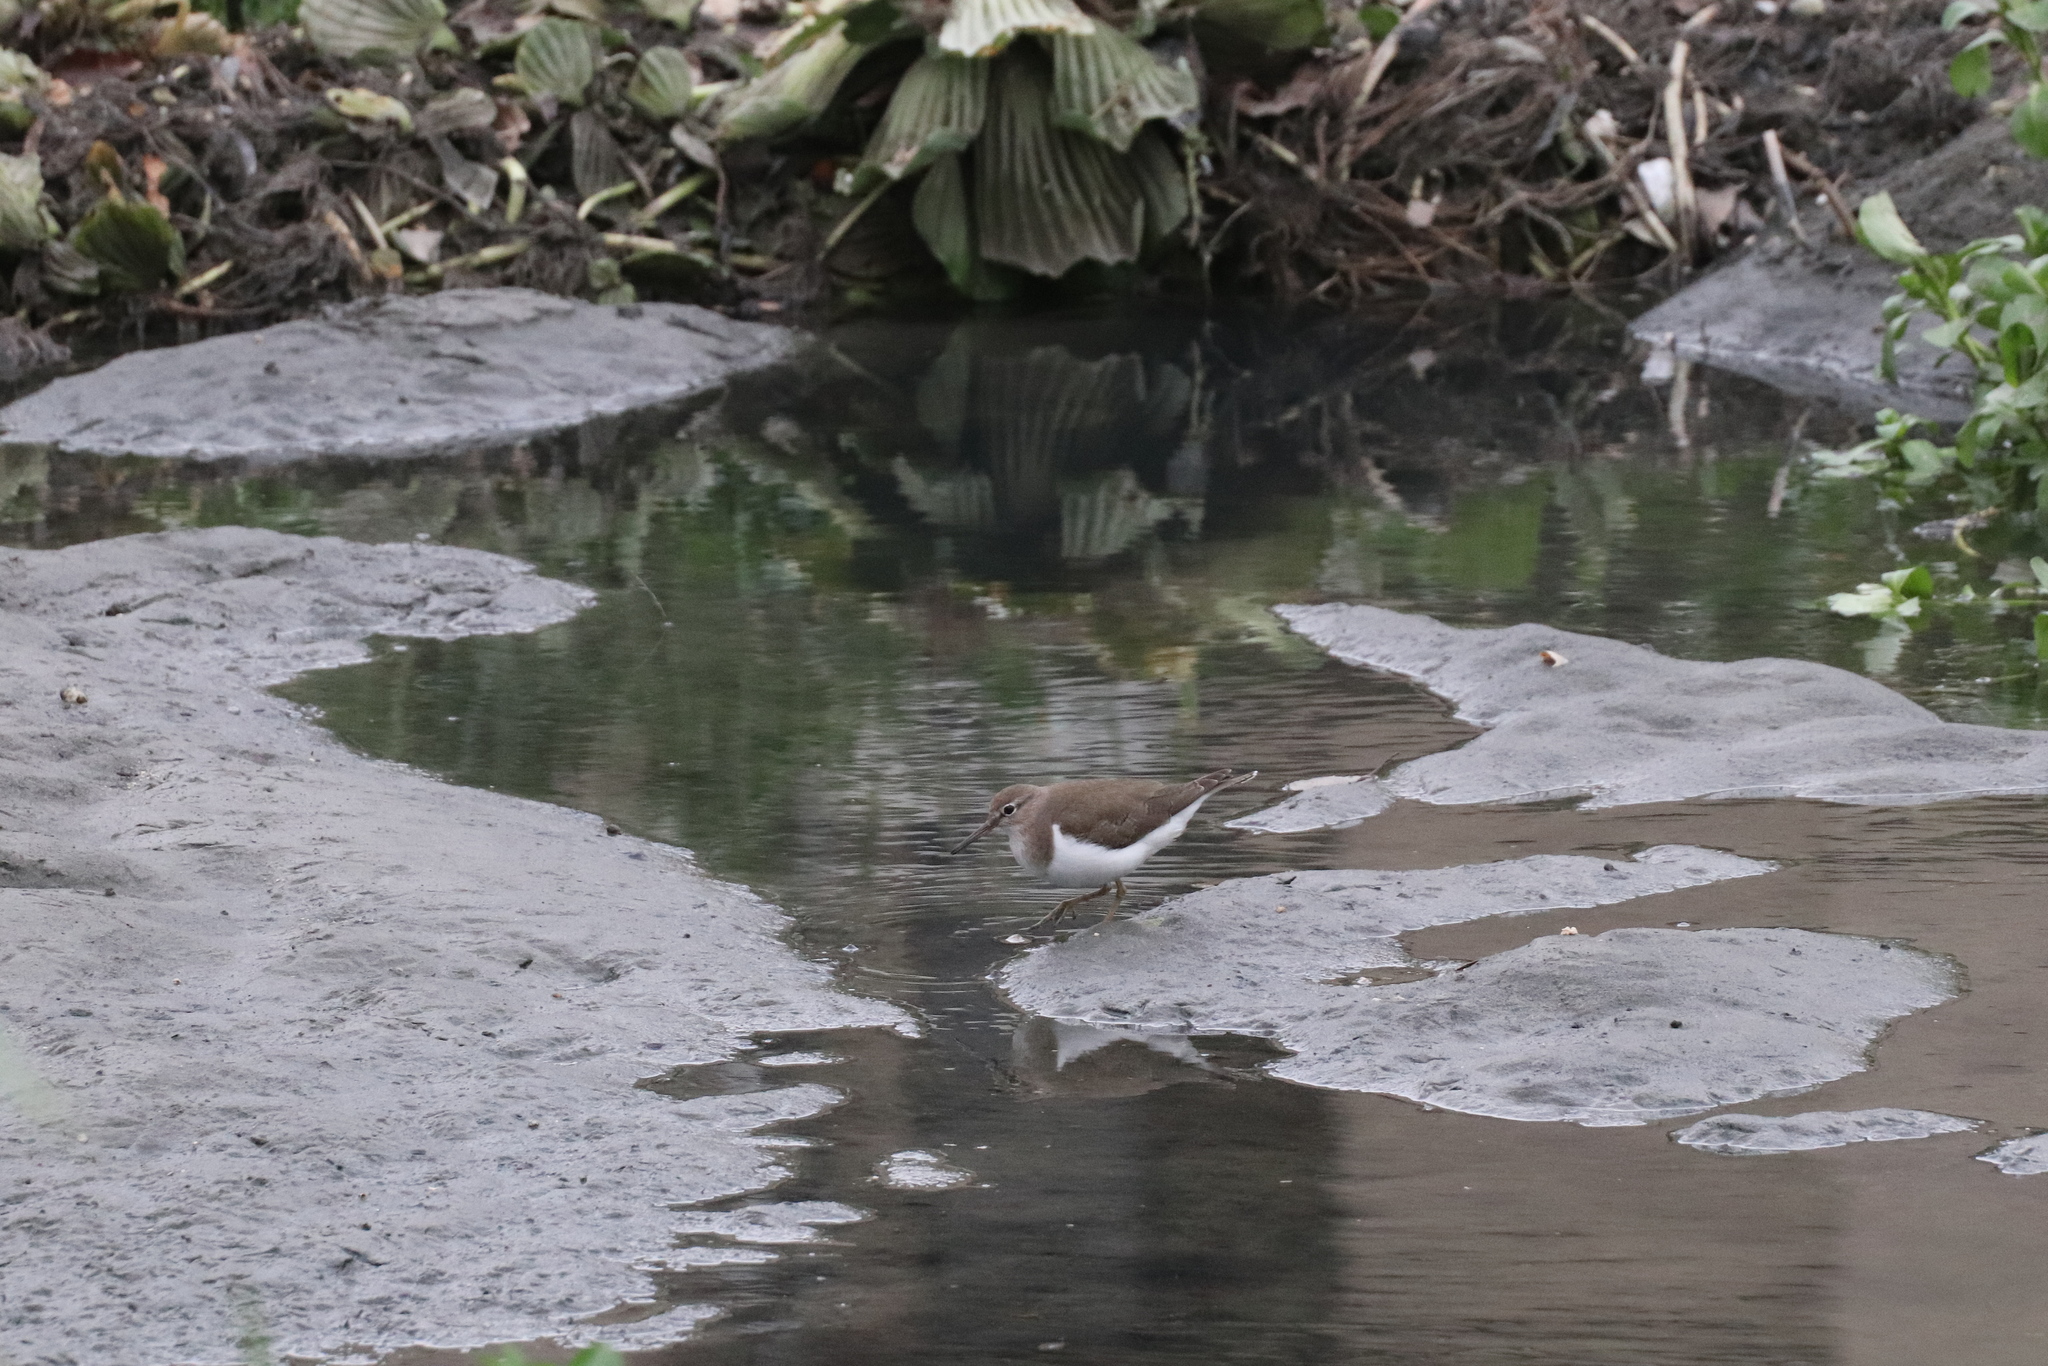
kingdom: Animalia
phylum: Chordata
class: Aves
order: Charadriiformes
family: Scolopacidae
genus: Actitis
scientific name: Actitis hypoleucos
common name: Common sandpiper
